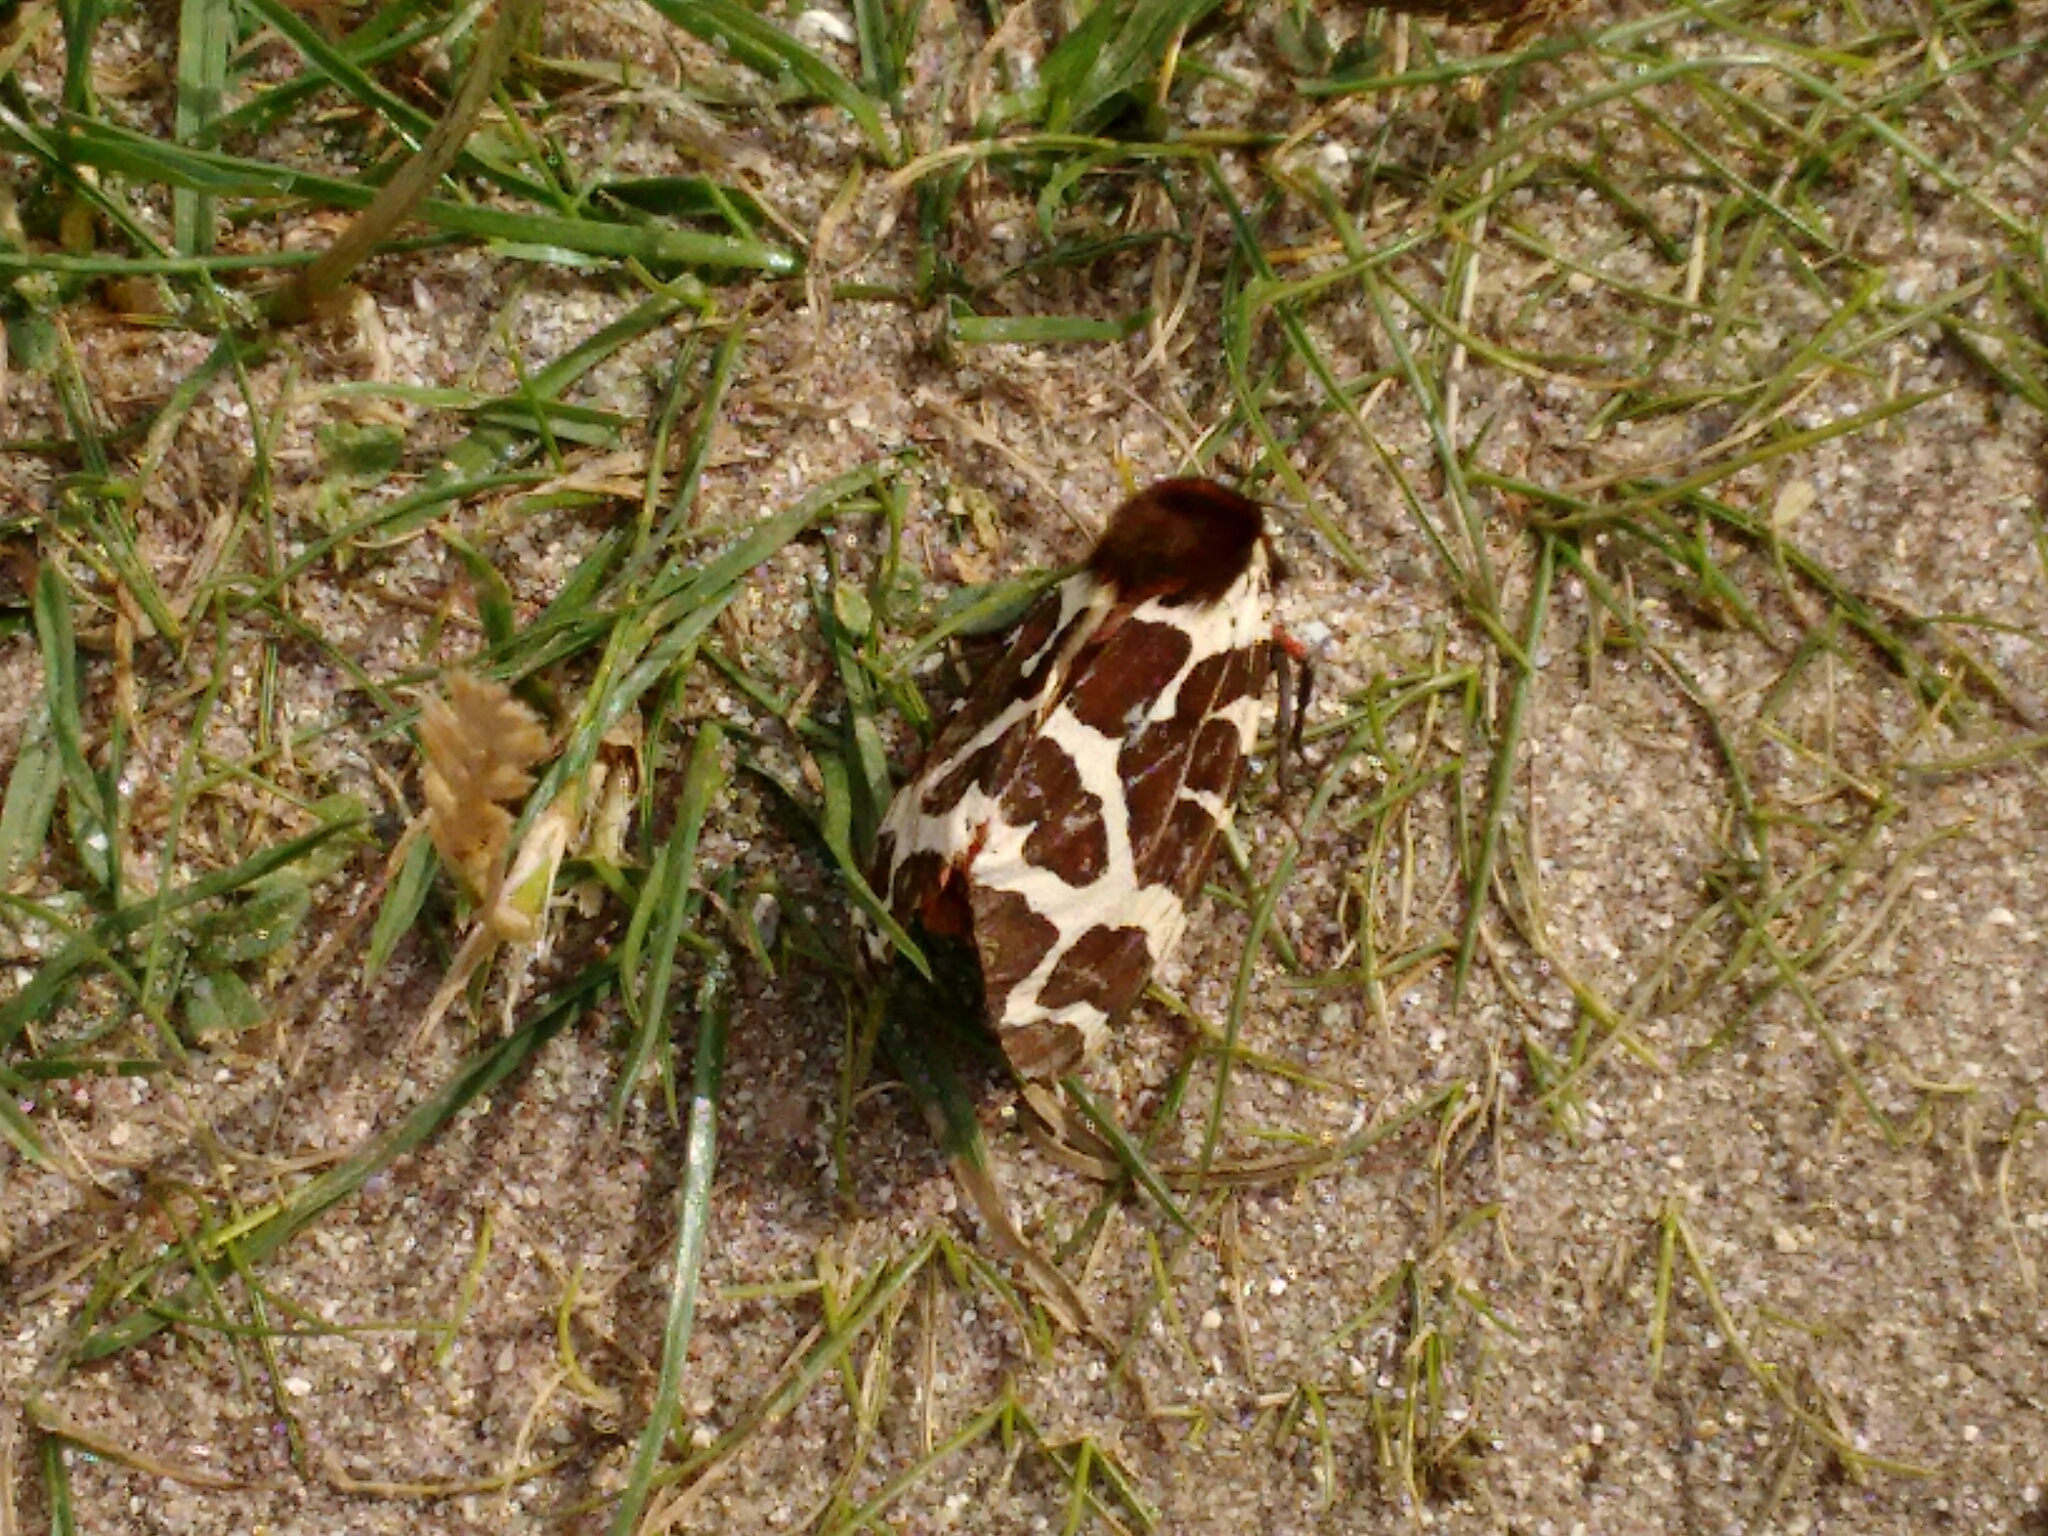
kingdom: Animalia
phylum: Arthropoda
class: Insecta
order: Lepidoptera
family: Erebidae
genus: Arctia
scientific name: Arctia caja
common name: Garden tiger
